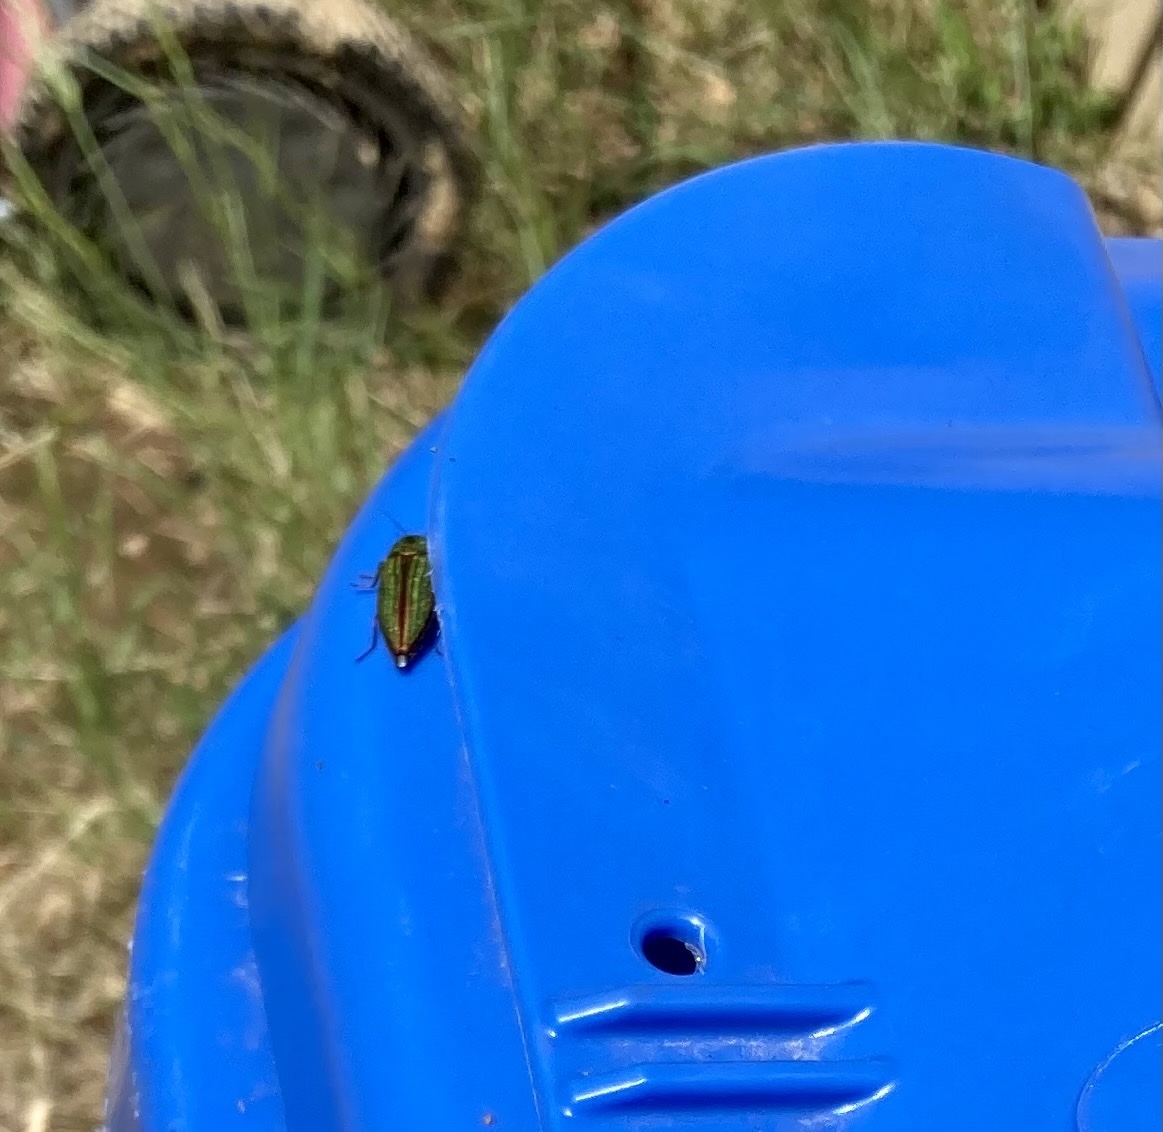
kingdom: Animalia
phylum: Arthropoda
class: Insecta
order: Coleoptera
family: Buprestidae
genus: Buprestis
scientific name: Buprestis aurulenta
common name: Golden buprestid
